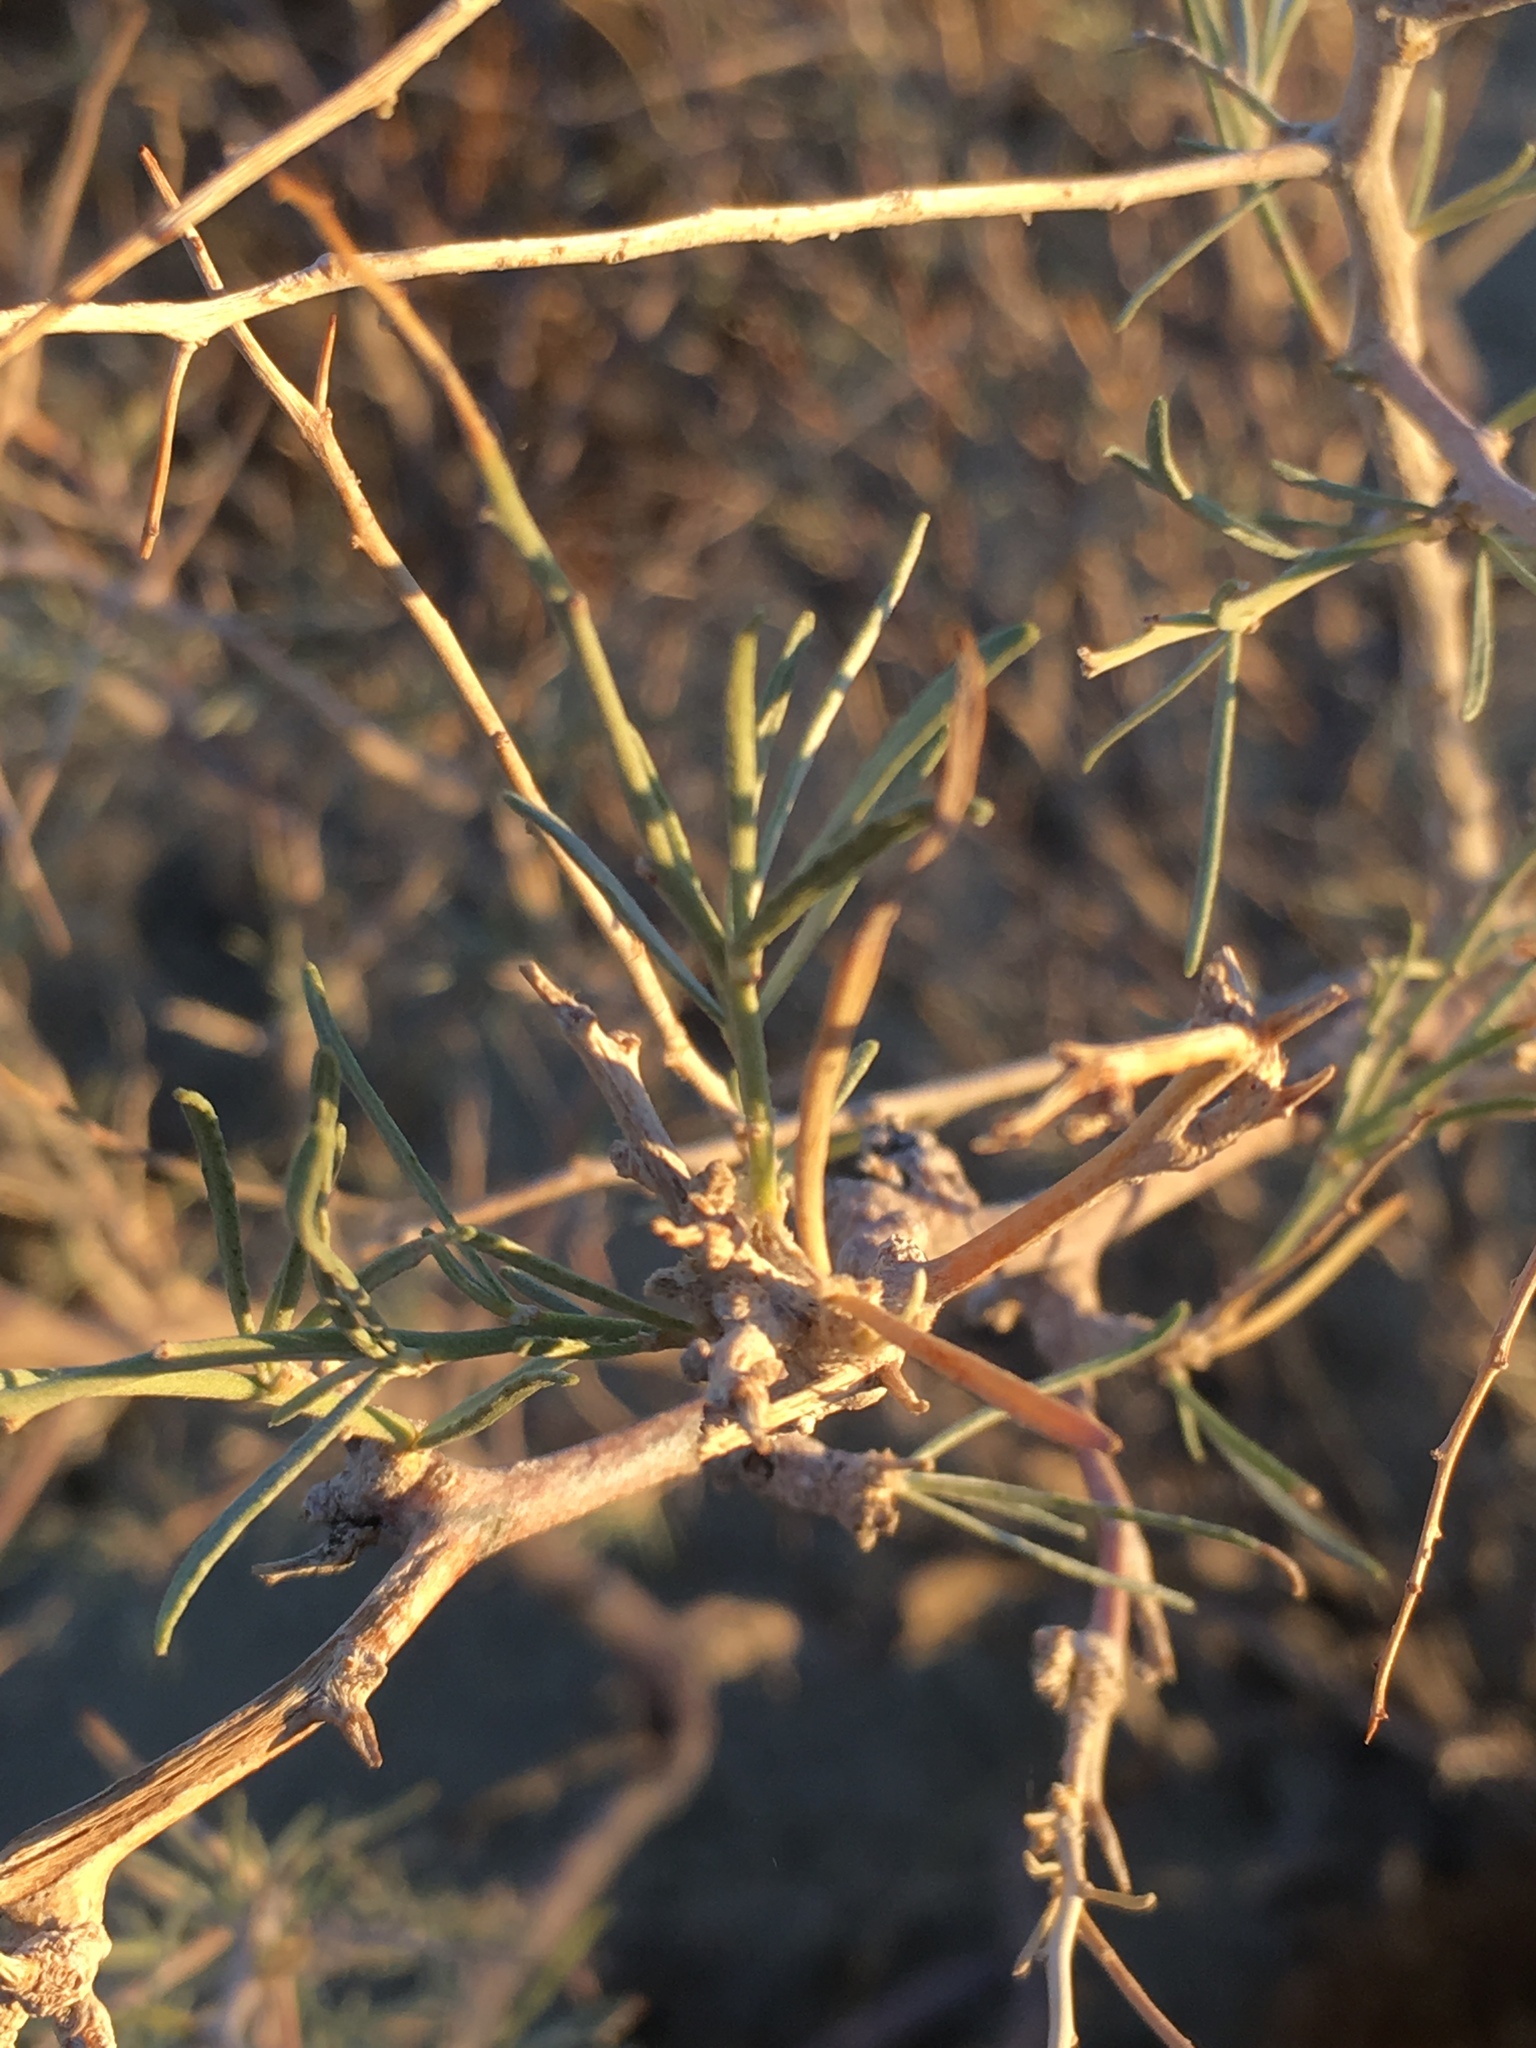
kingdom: Plantae
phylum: Tracheophyta
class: Magnoliopsida
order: Fabales
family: Fabaceae
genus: Psorothamnus
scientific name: Psorothamnus schottii
